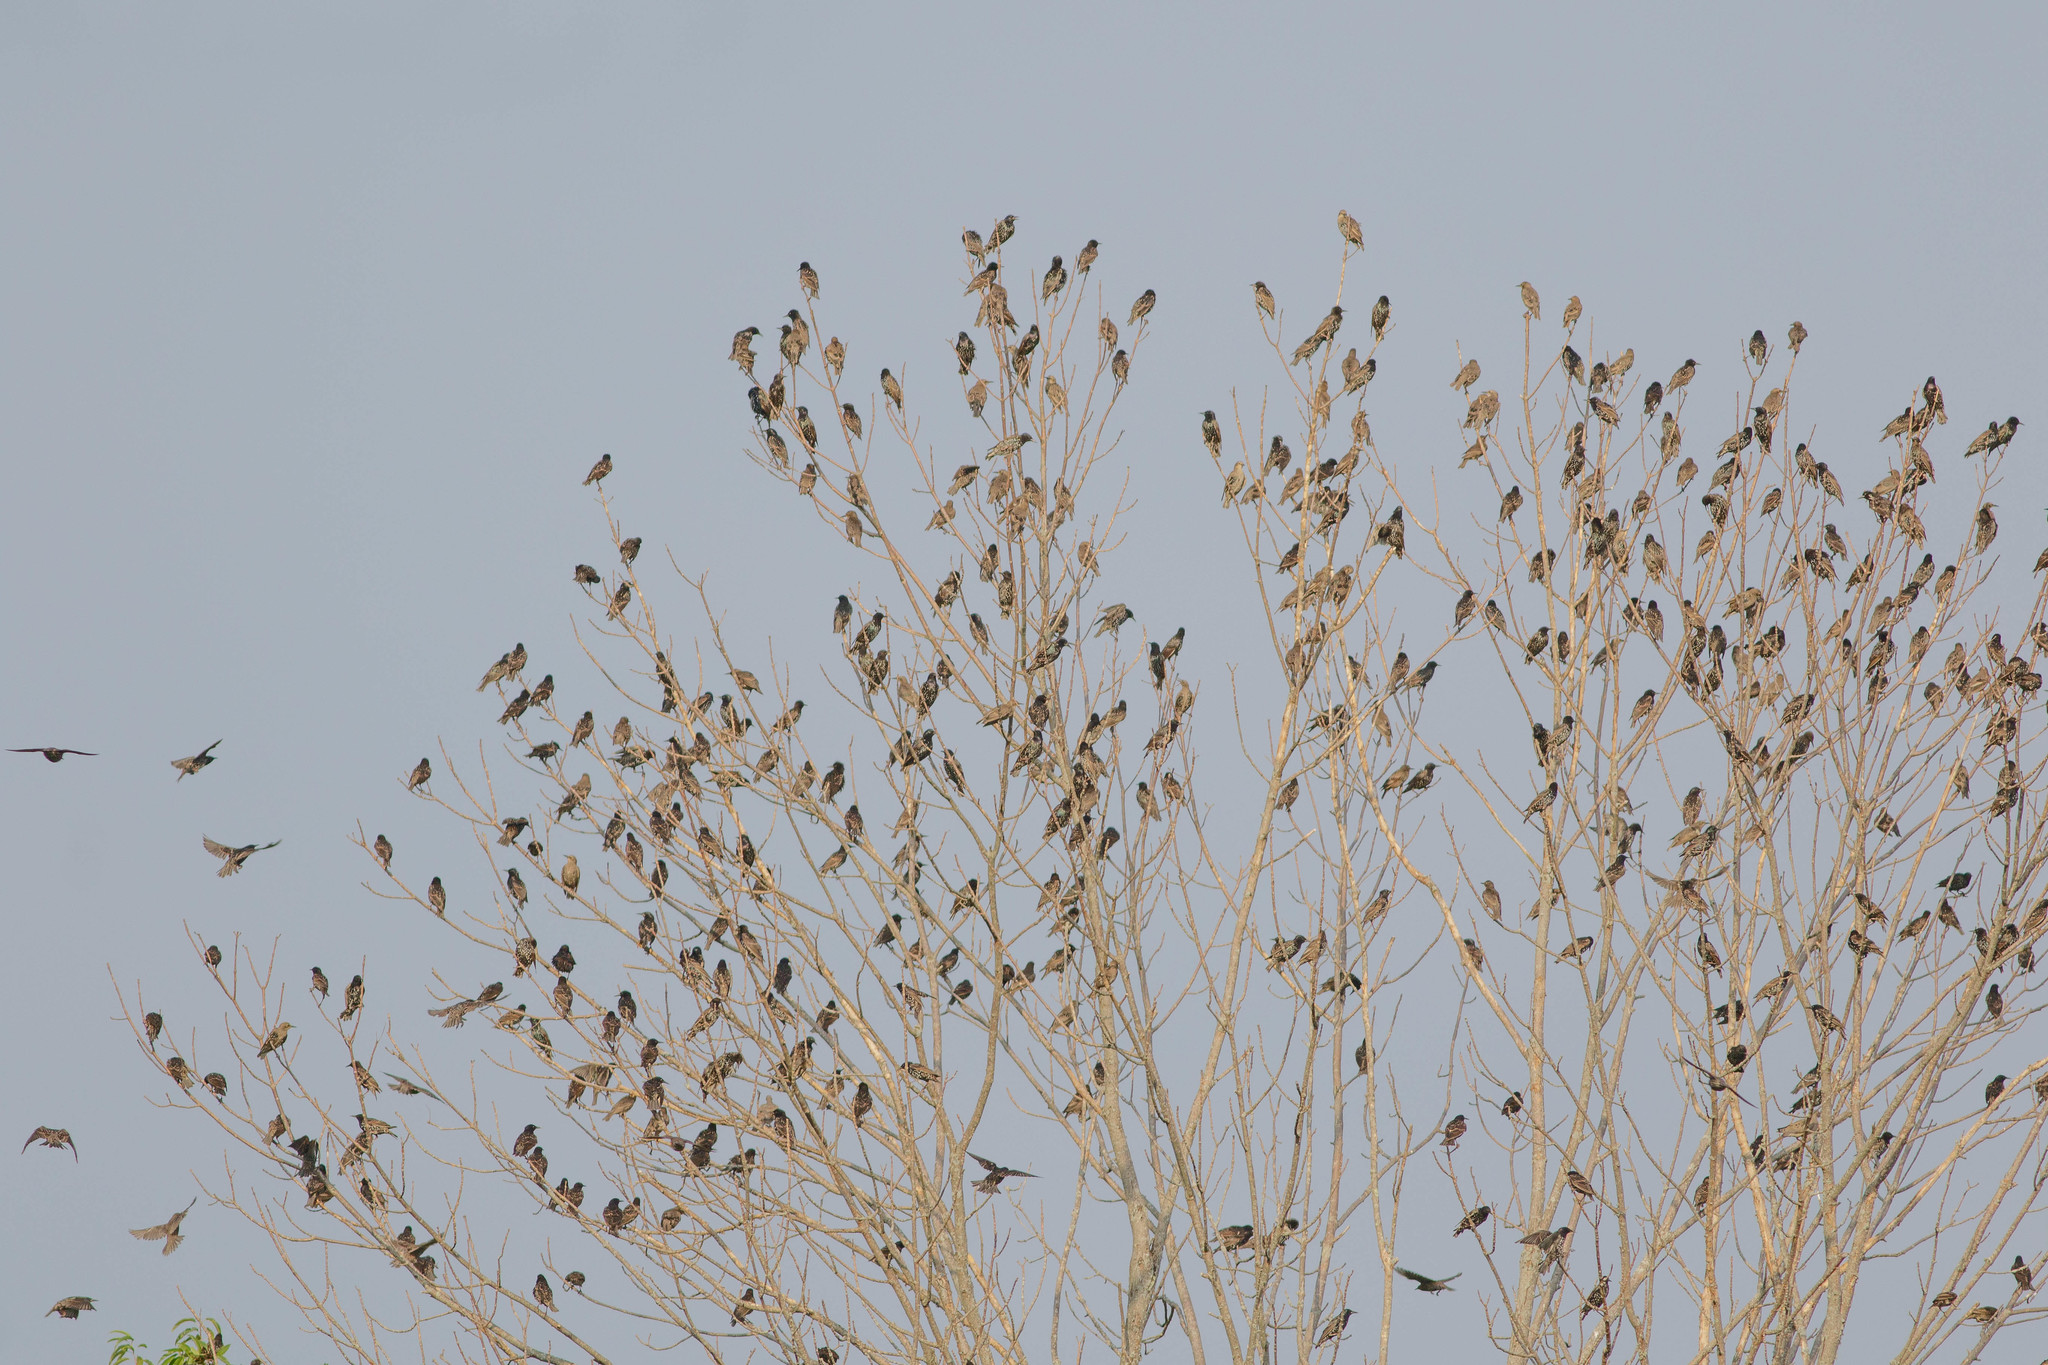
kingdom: Animalia
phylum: Chordata
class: Aves
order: Passeriformes
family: Sturnidae
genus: Sturnus
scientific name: Sturnus vulgaris
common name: Common starling
